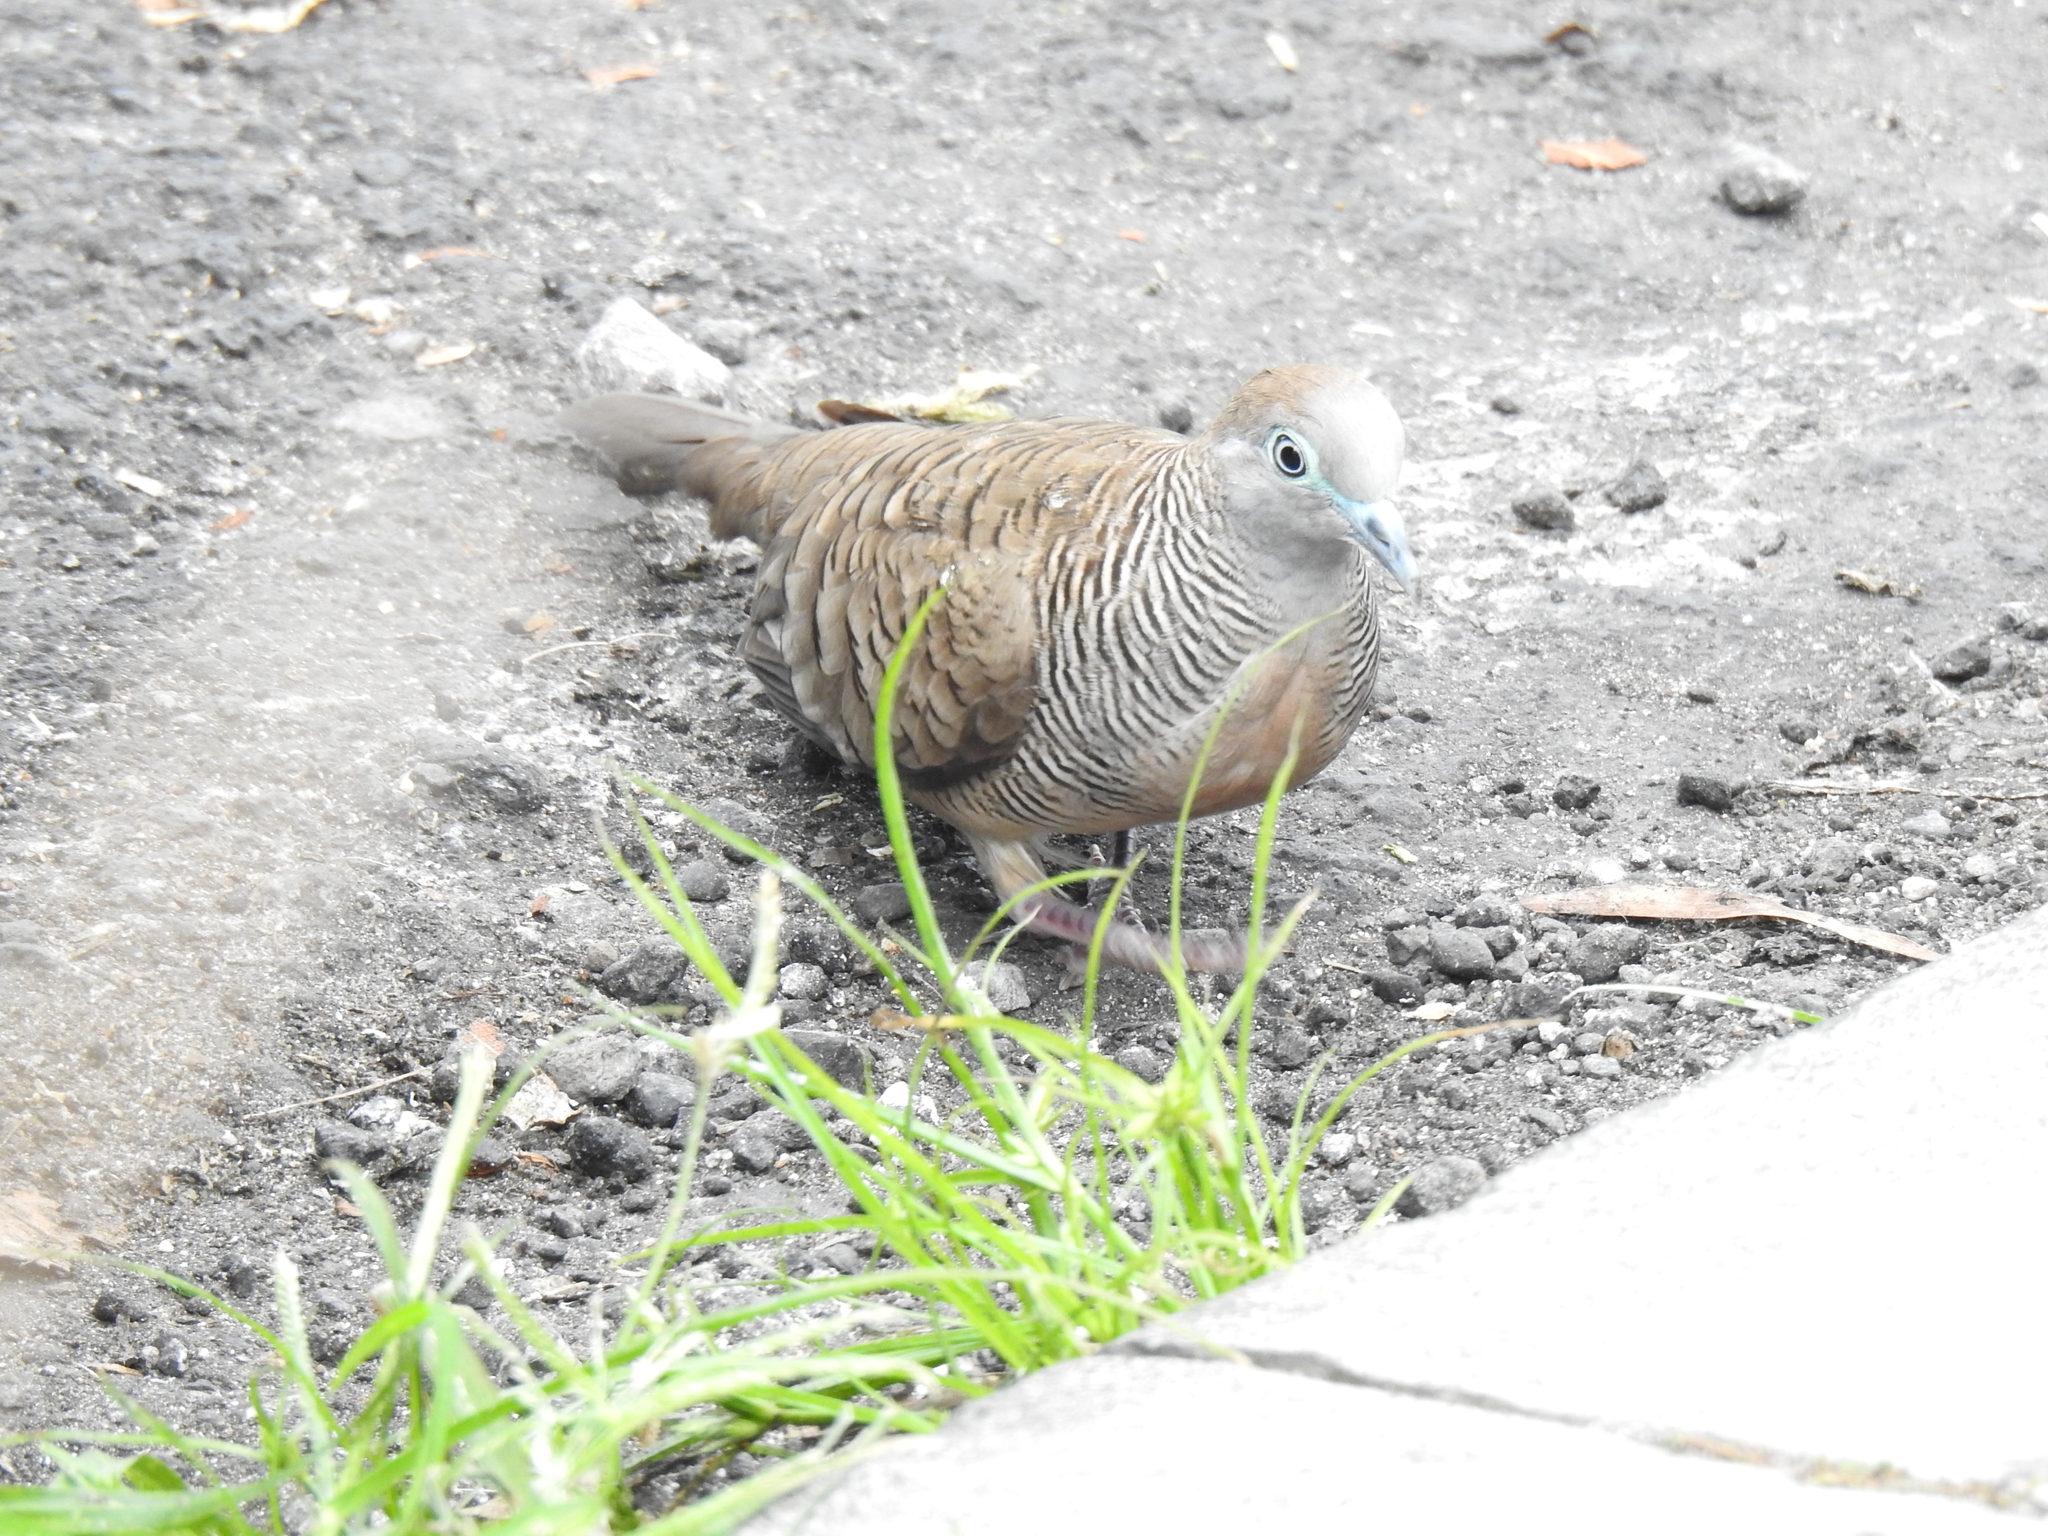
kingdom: Animalia
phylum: Chordata
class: Aves
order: Columbiformes
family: Columbidae
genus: Geopelia
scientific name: Geopelia striata
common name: Zebra dove
